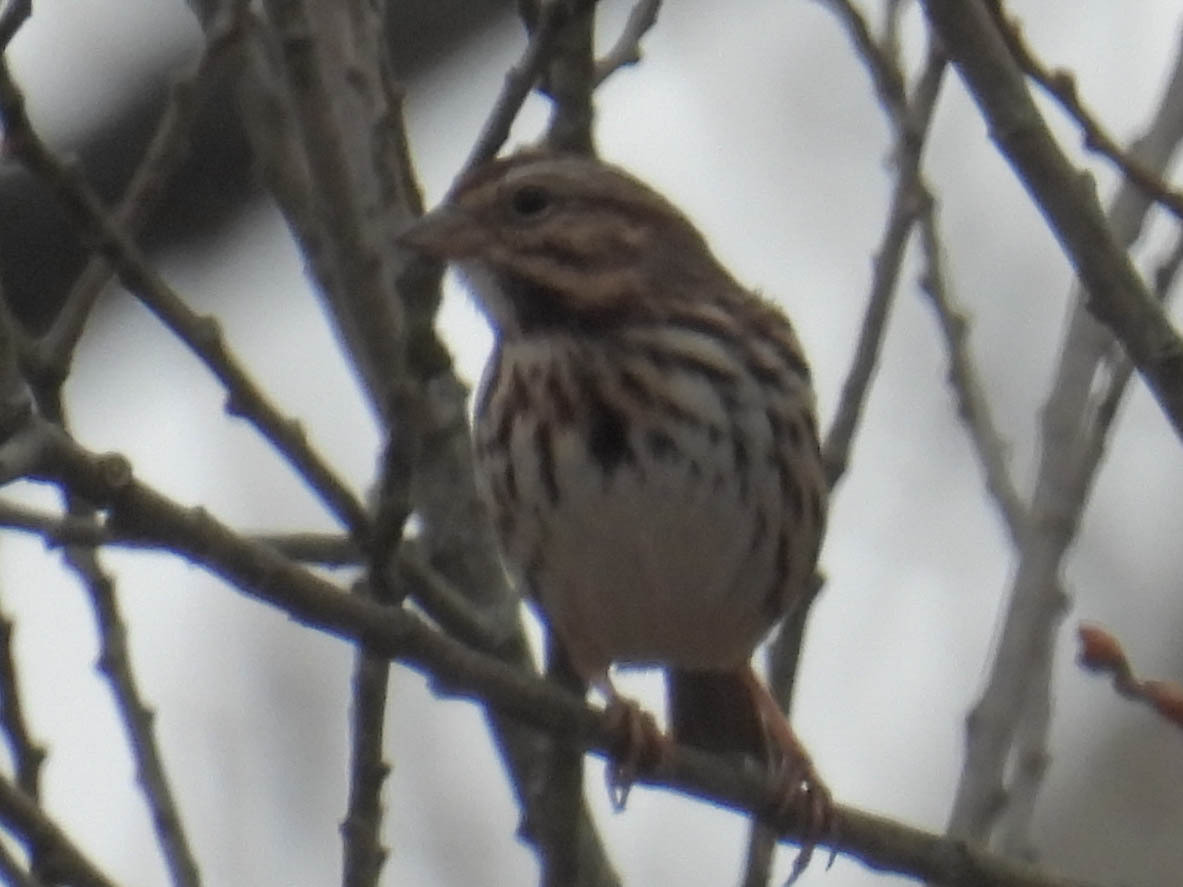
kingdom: Animalia
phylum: Chordata
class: Aves
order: Passeriformes
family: Passerellidae
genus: Melospiza
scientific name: Melospiza melodia
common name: Song sparrow
